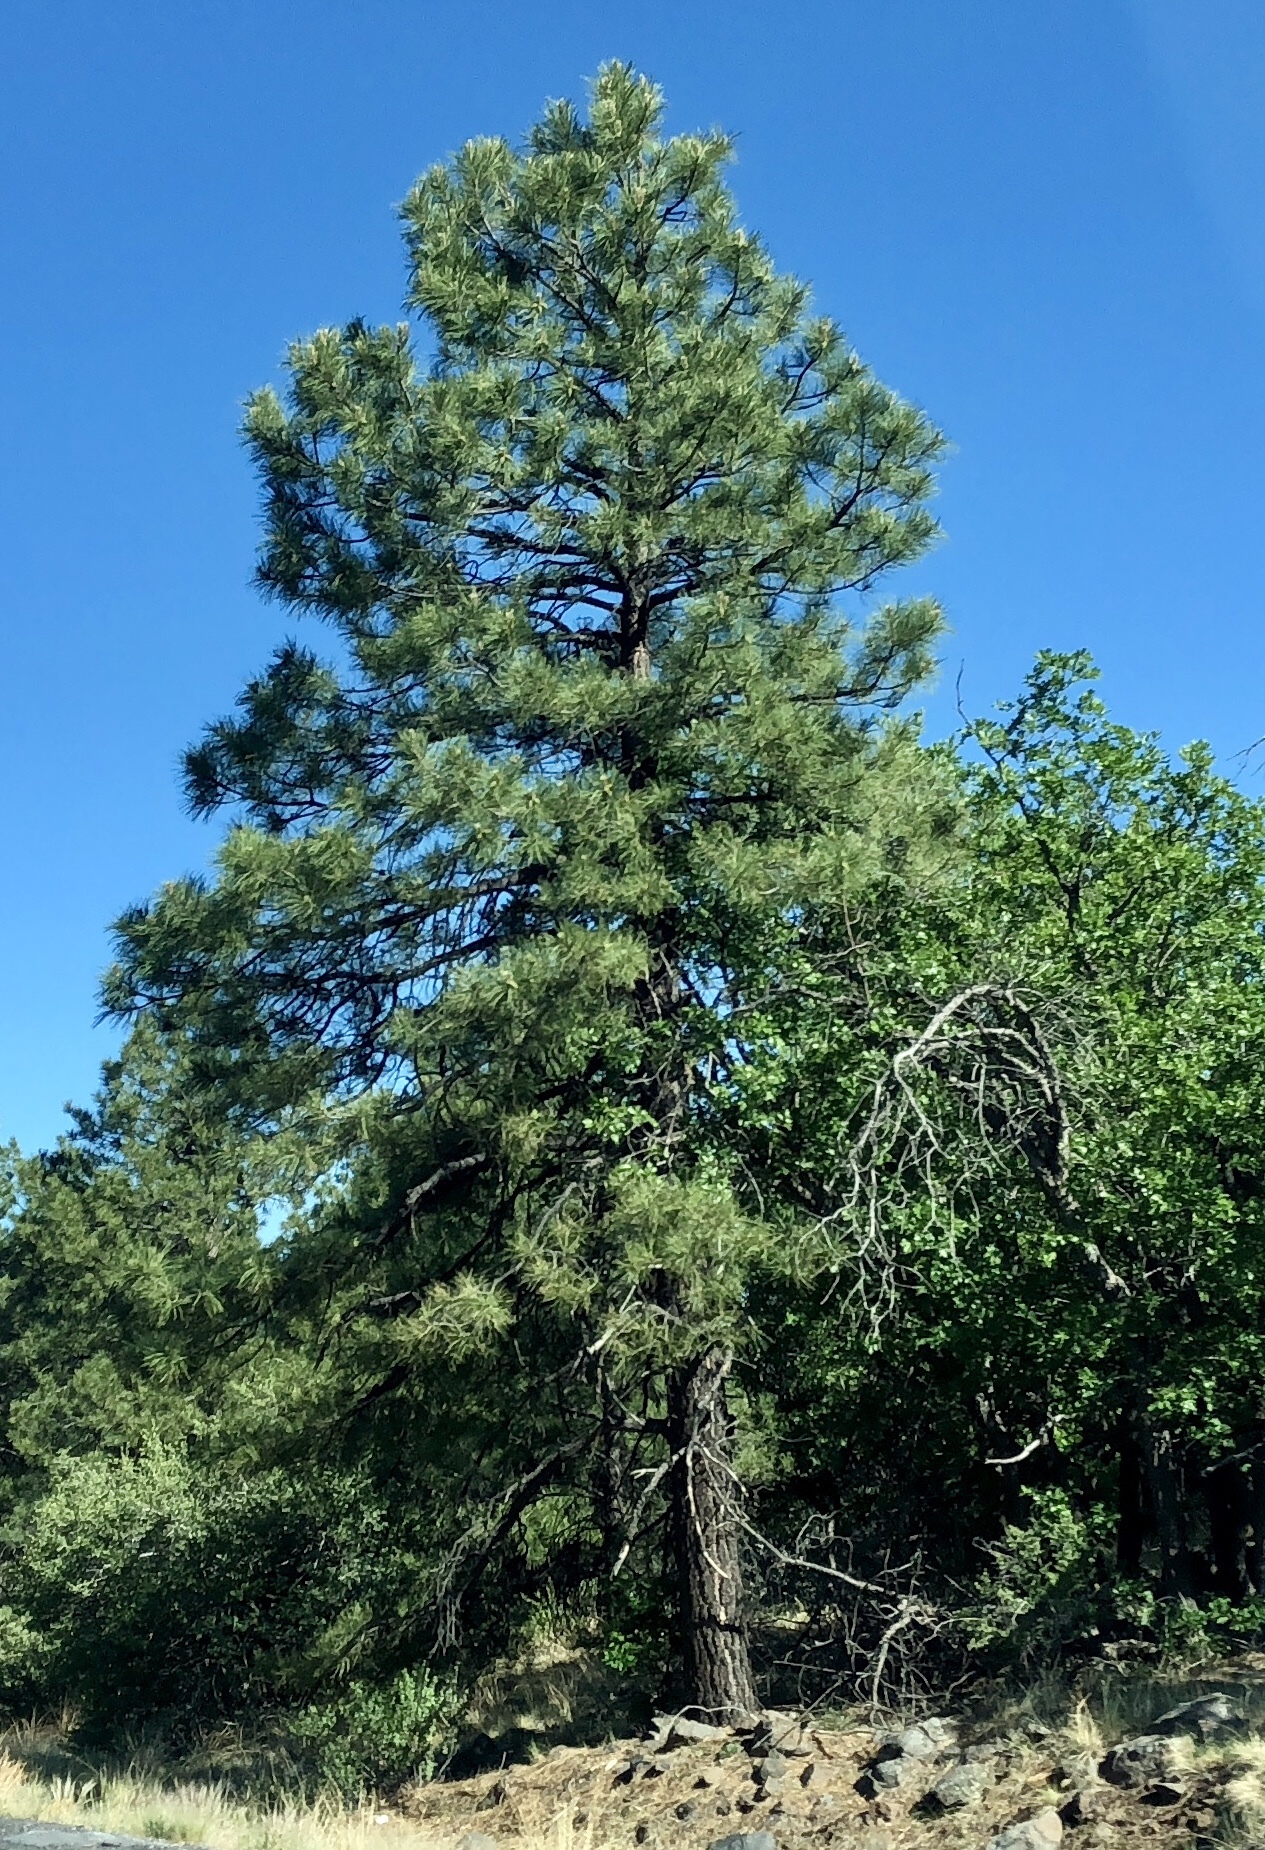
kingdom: Plantae
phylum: Tracheophyta
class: Pinopsida
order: Pinales
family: Pinaceae
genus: Pinus
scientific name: Pinus ponderosa
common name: Western yellow-pine
